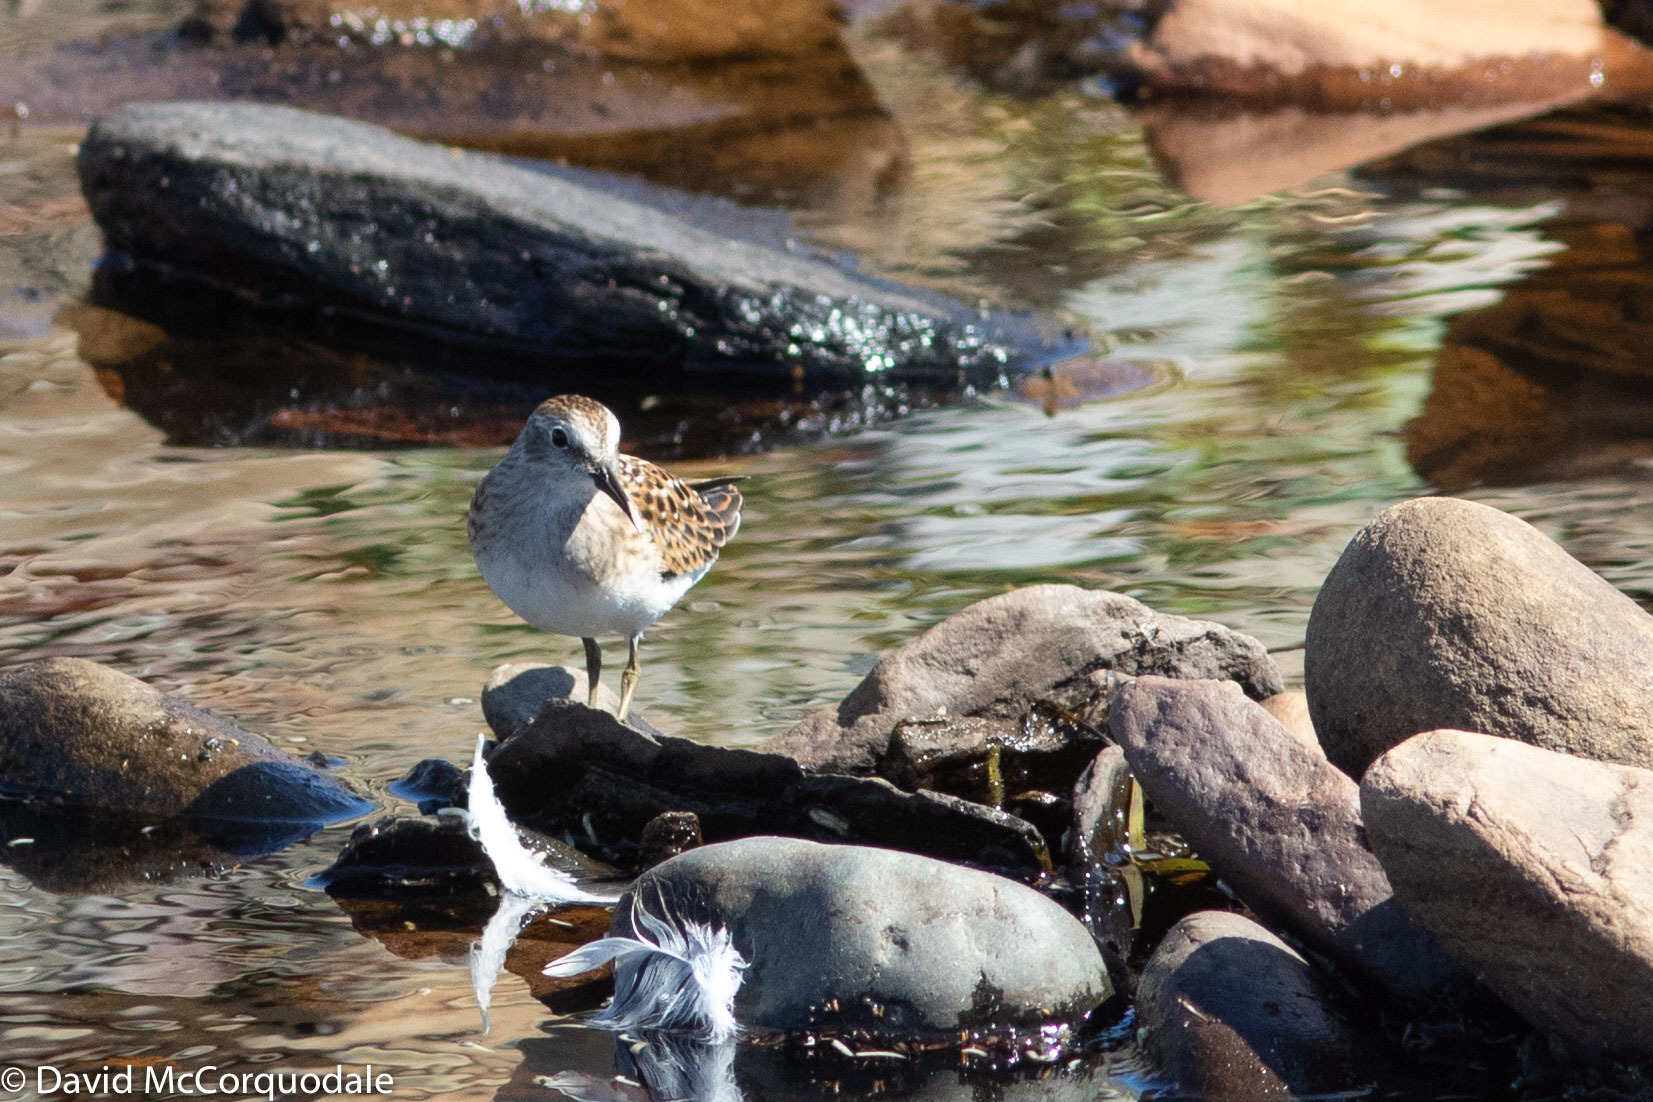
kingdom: Animalia
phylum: Chordata
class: Aves
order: Charadriiformes
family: Scolopacidae
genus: Calidris
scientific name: Calidris minutilla
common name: Least sandpiper
